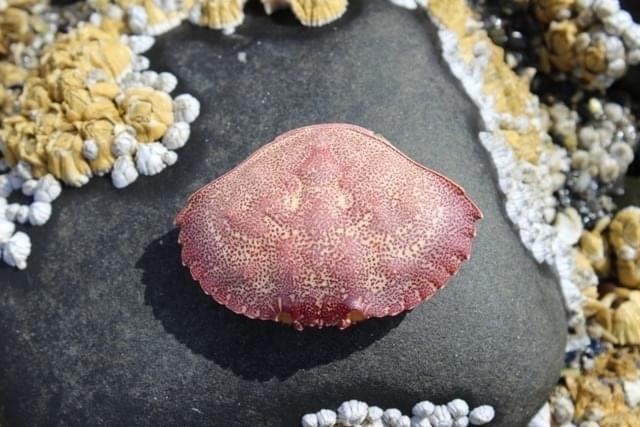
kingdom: Animalia
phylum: Arthropoda
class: Malacostraca
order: Decapoda
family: Cancridae
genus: Cancer
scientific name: Cancer irroratus
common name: Atlantic rock crab
